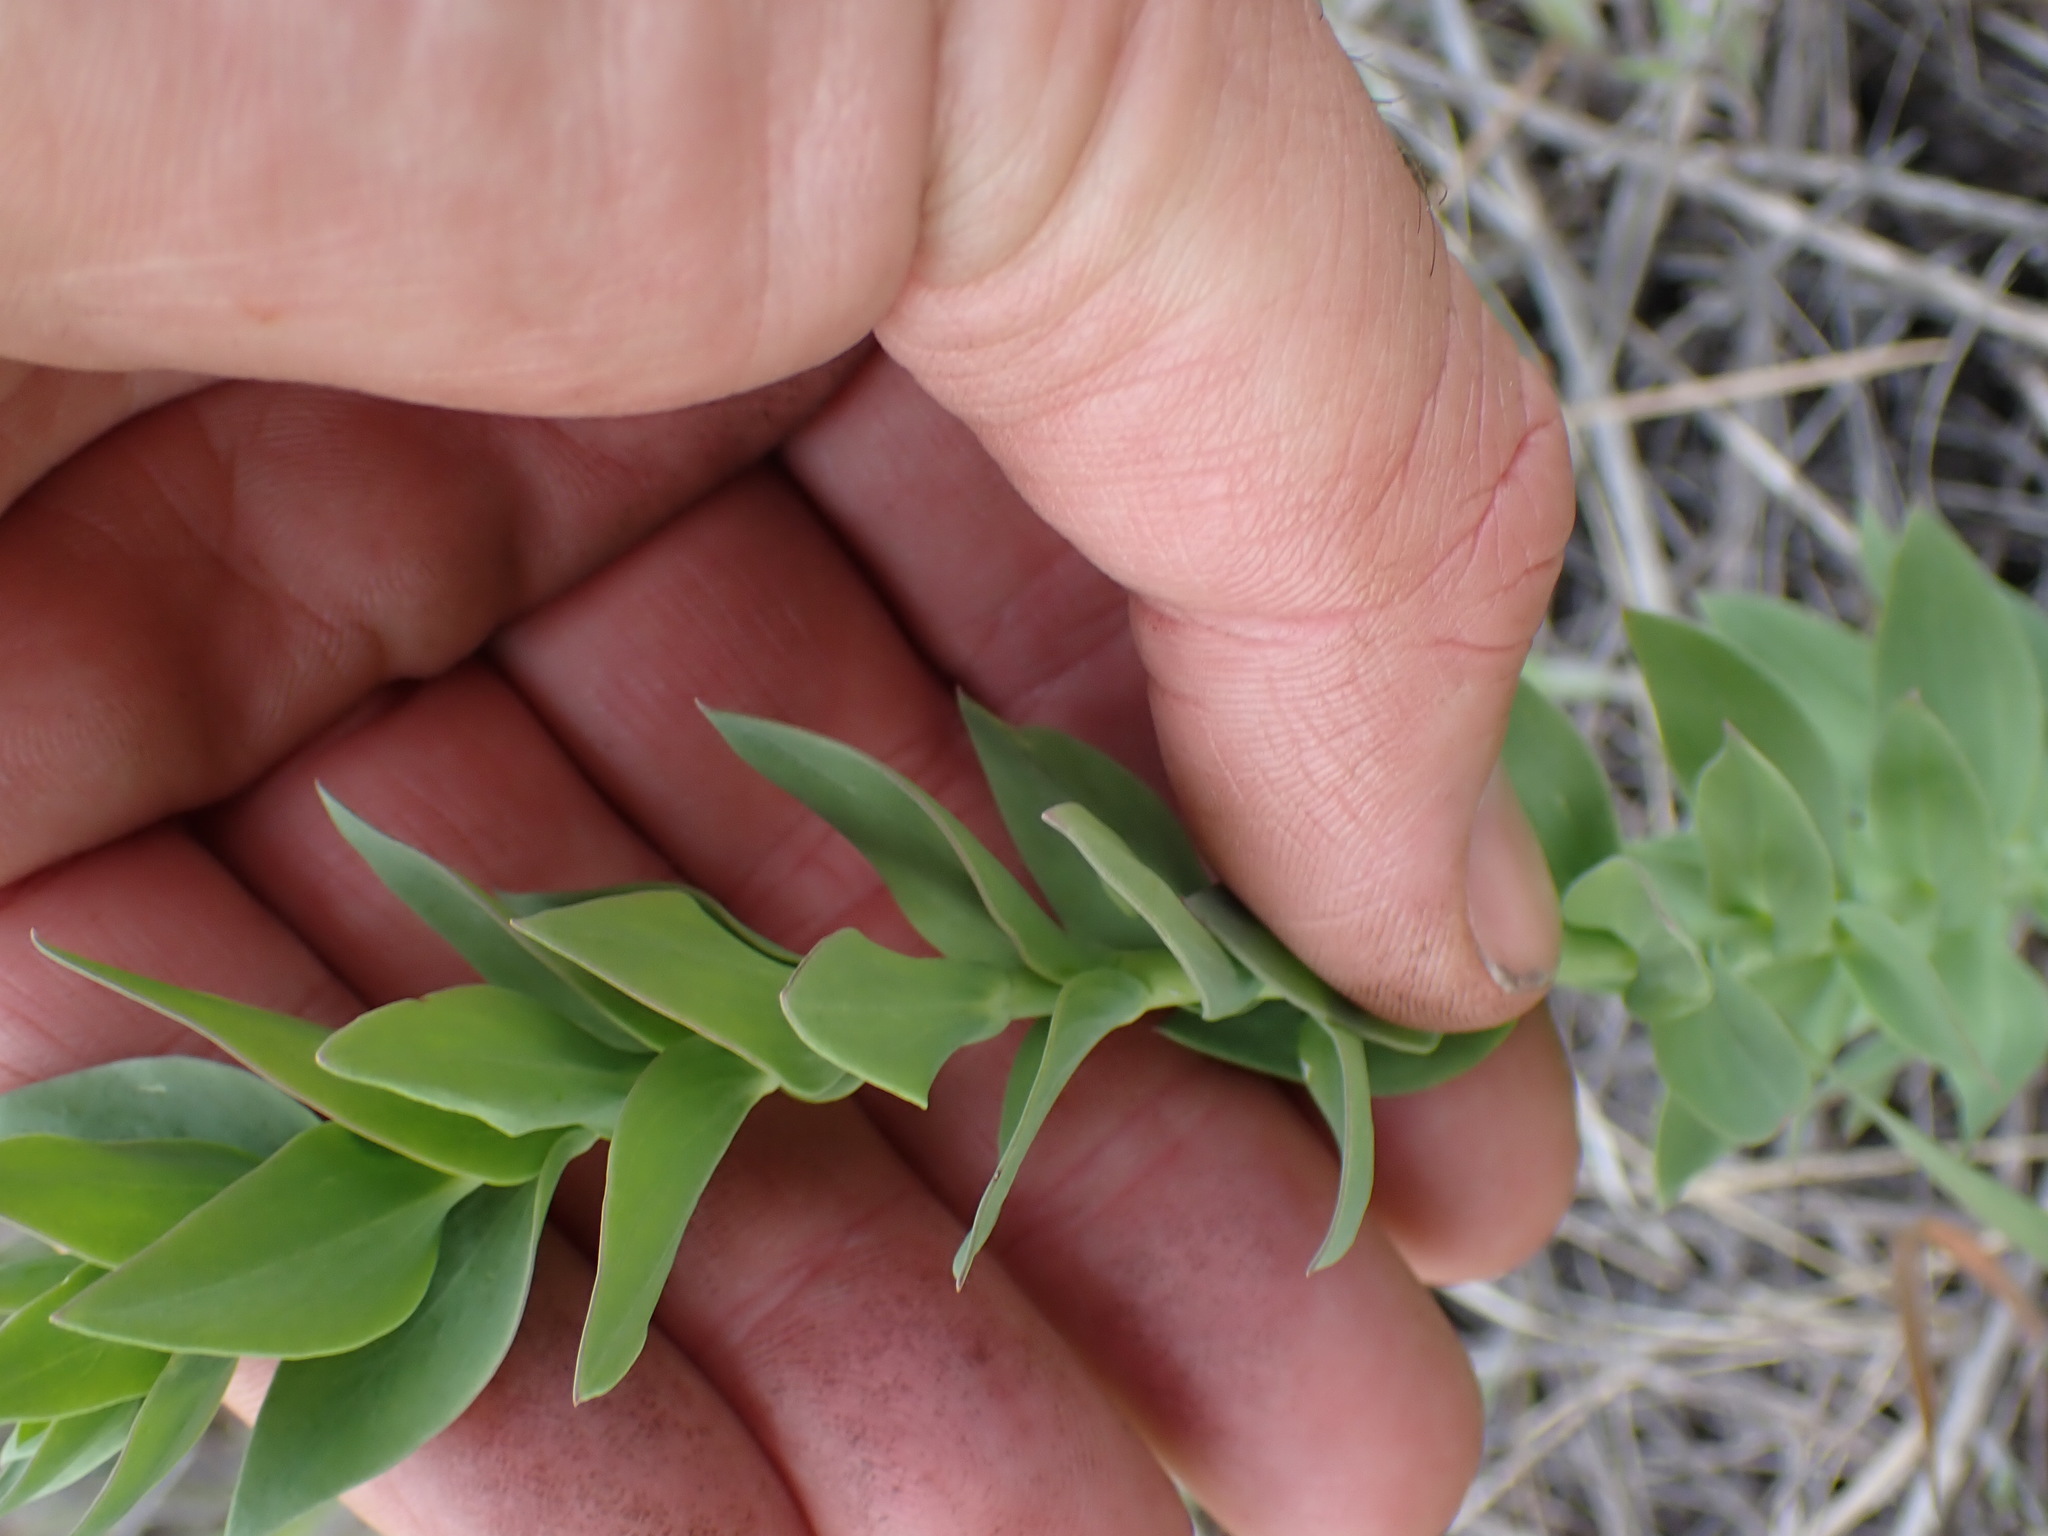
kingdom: Plantae
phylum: Tracheophyta
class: Magnoliopsida
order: Lamiales
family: Plantaginaceae
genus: Linaria
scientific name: Linaria dalmatica
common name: Dalmatian toadflax
